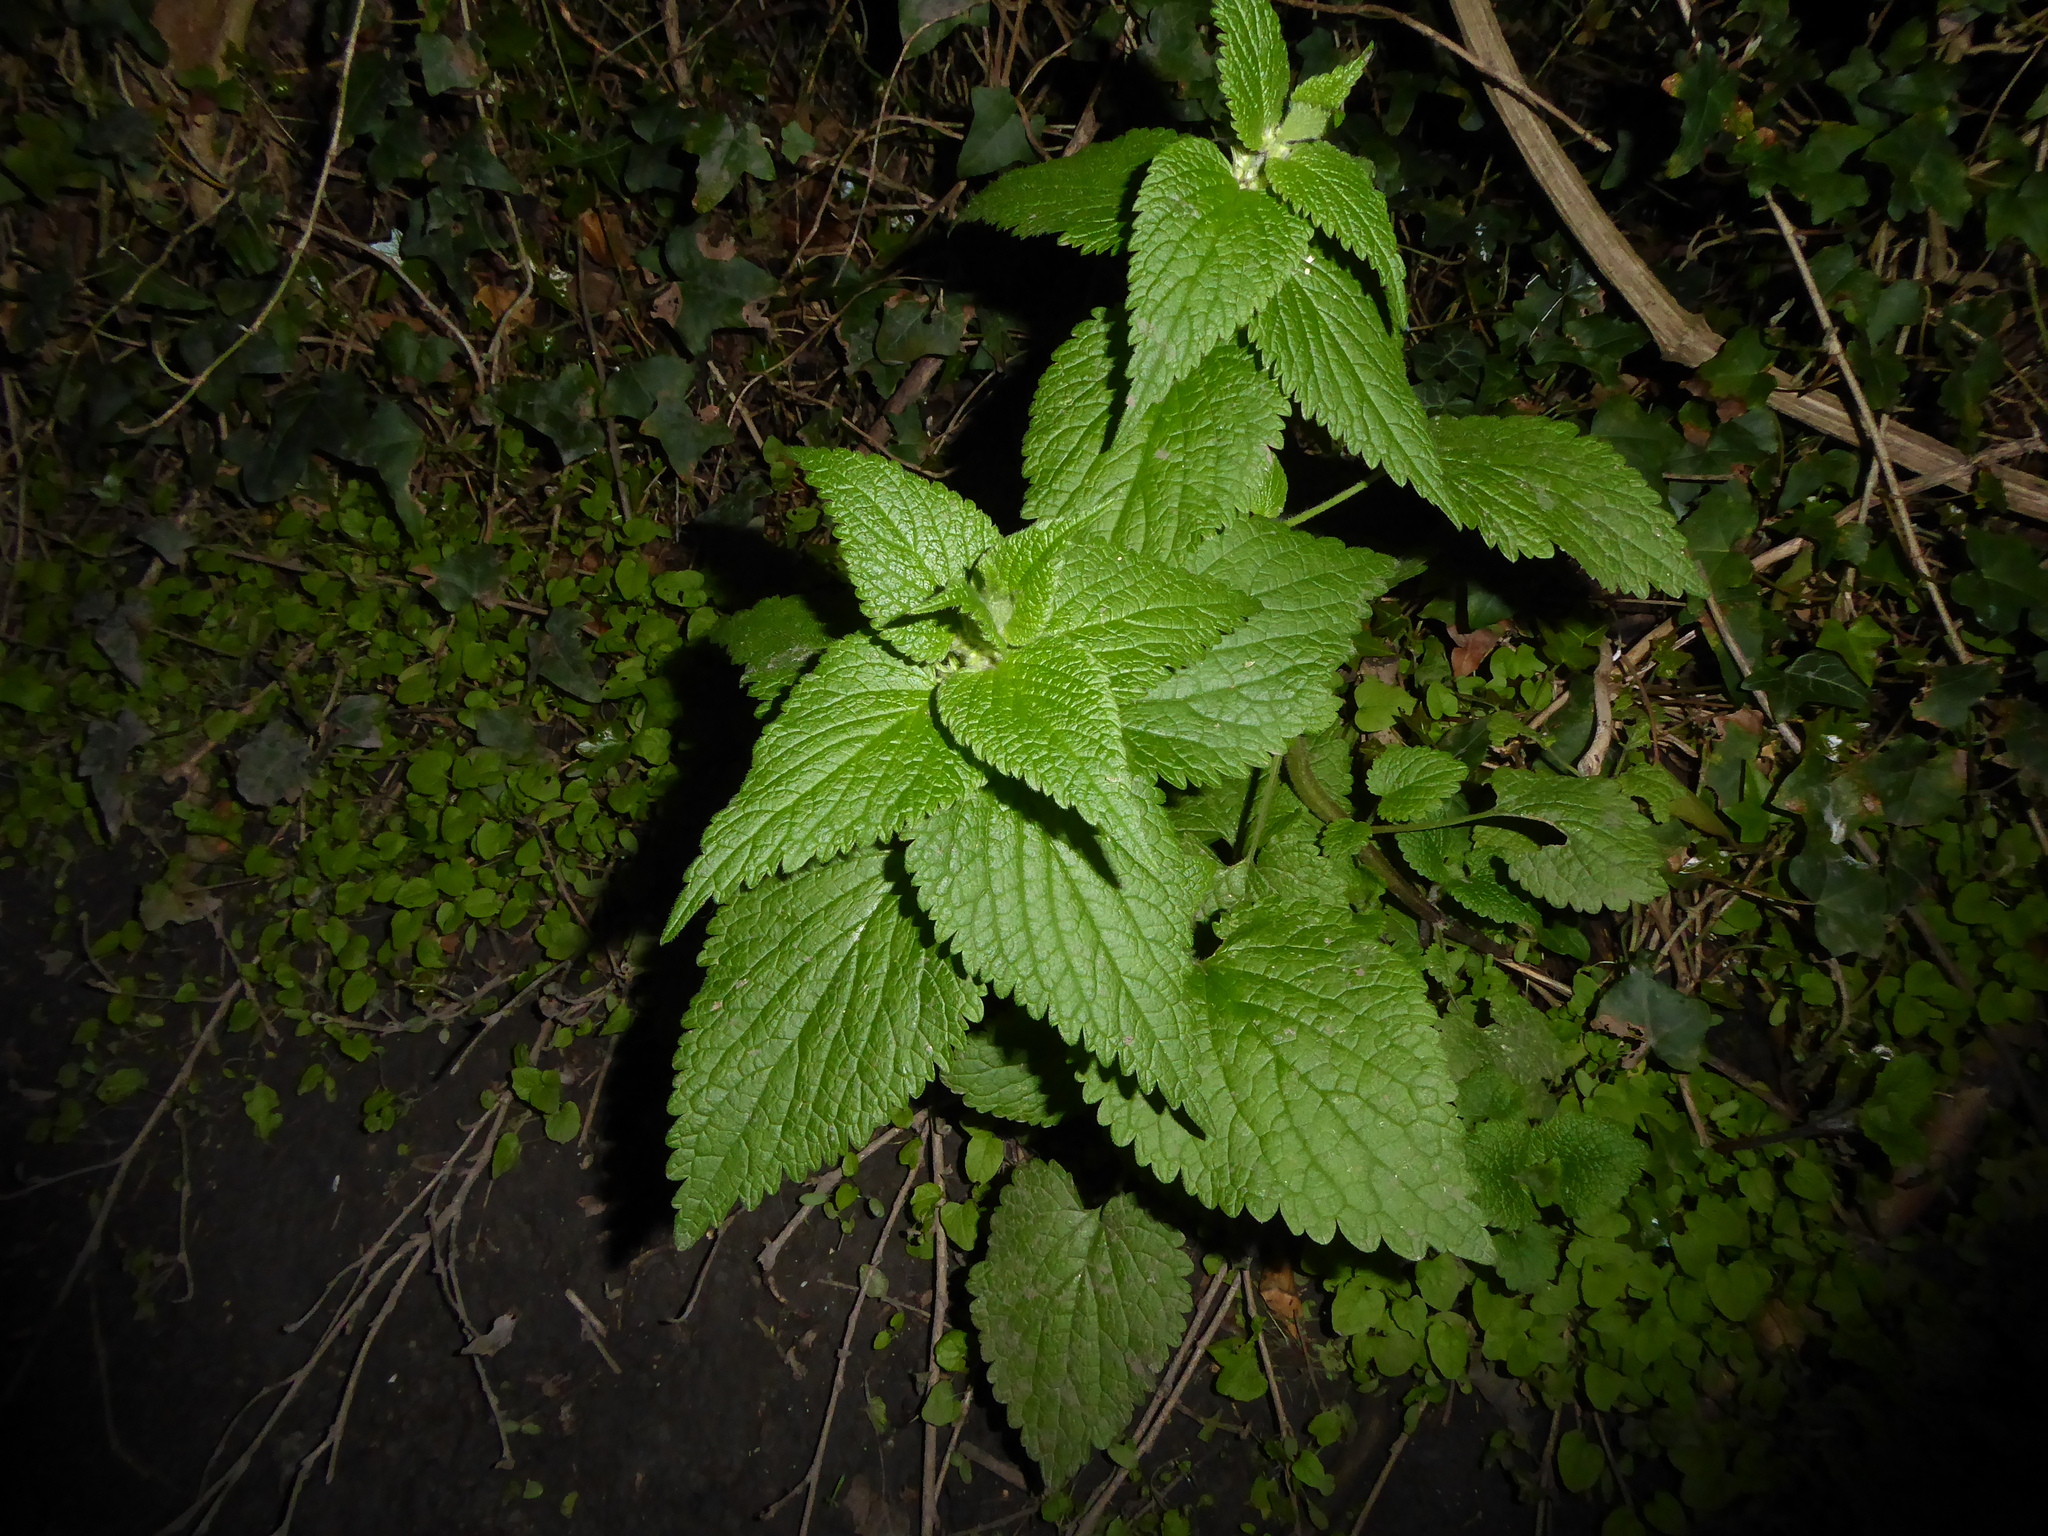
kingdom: Plantae
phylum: Tracheophyta
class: Magnoliopsida
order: Lamiales
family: Lamiaceae
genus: Lamium
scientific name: Lamium album
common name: White dead-nettle
